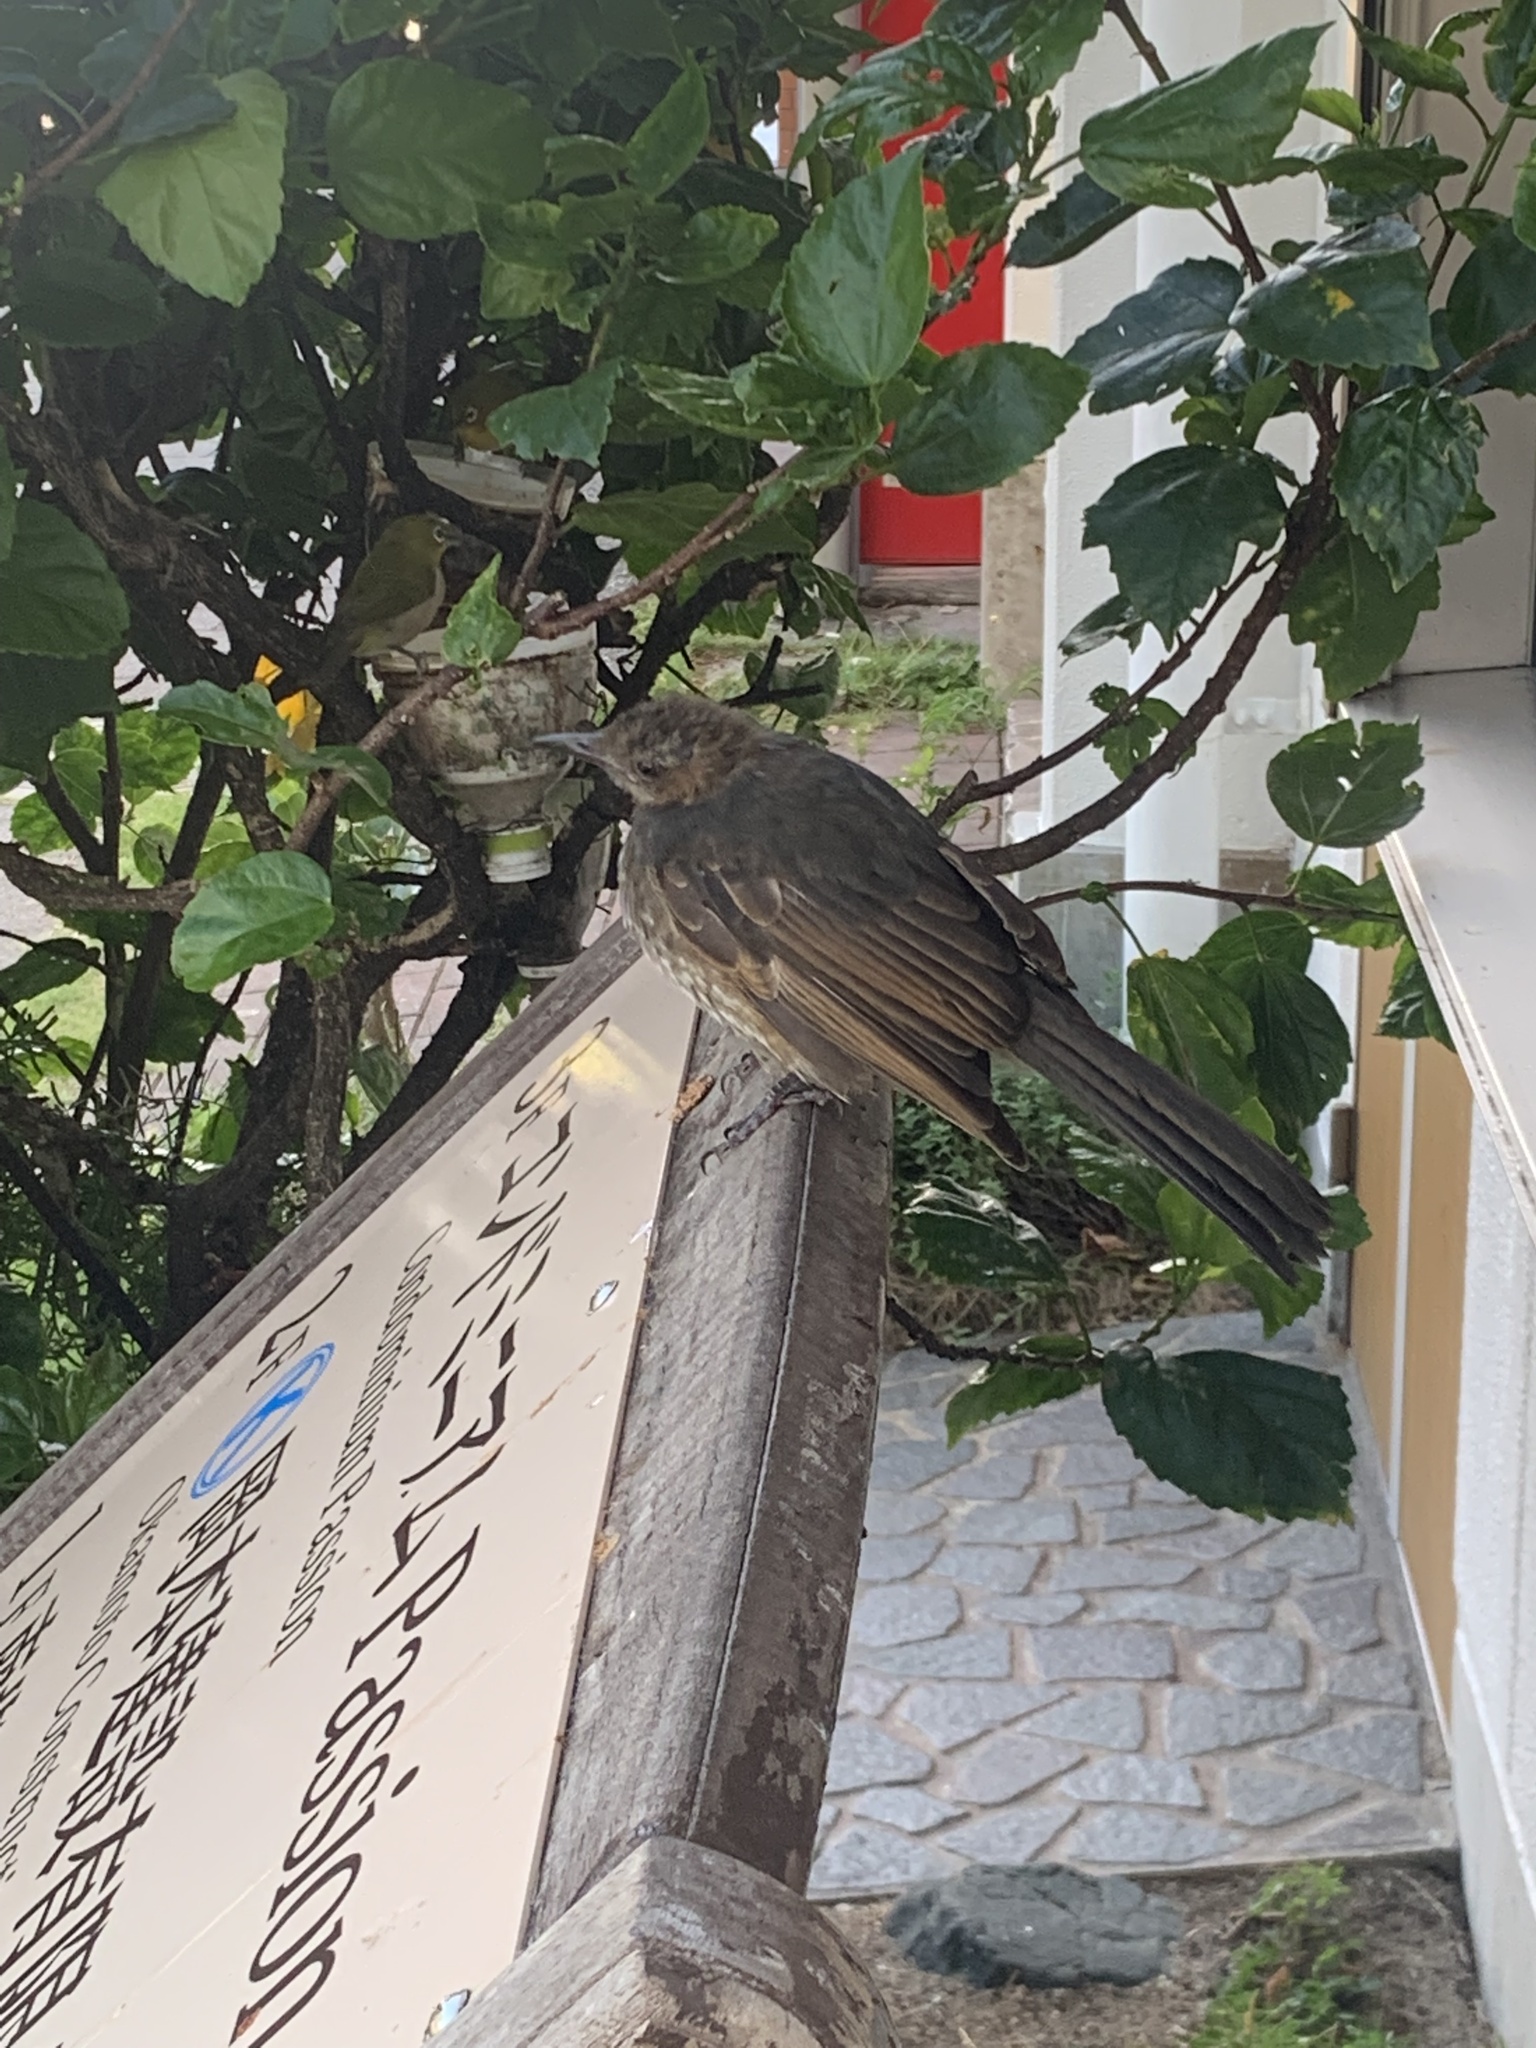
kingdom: Animalia
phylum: Chordata
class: Aves
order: Passeriformes
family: Pycnonotidae
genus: Hypsipetes
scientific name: Hypsipetes amaurotis
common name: Brown-eared bulbul
